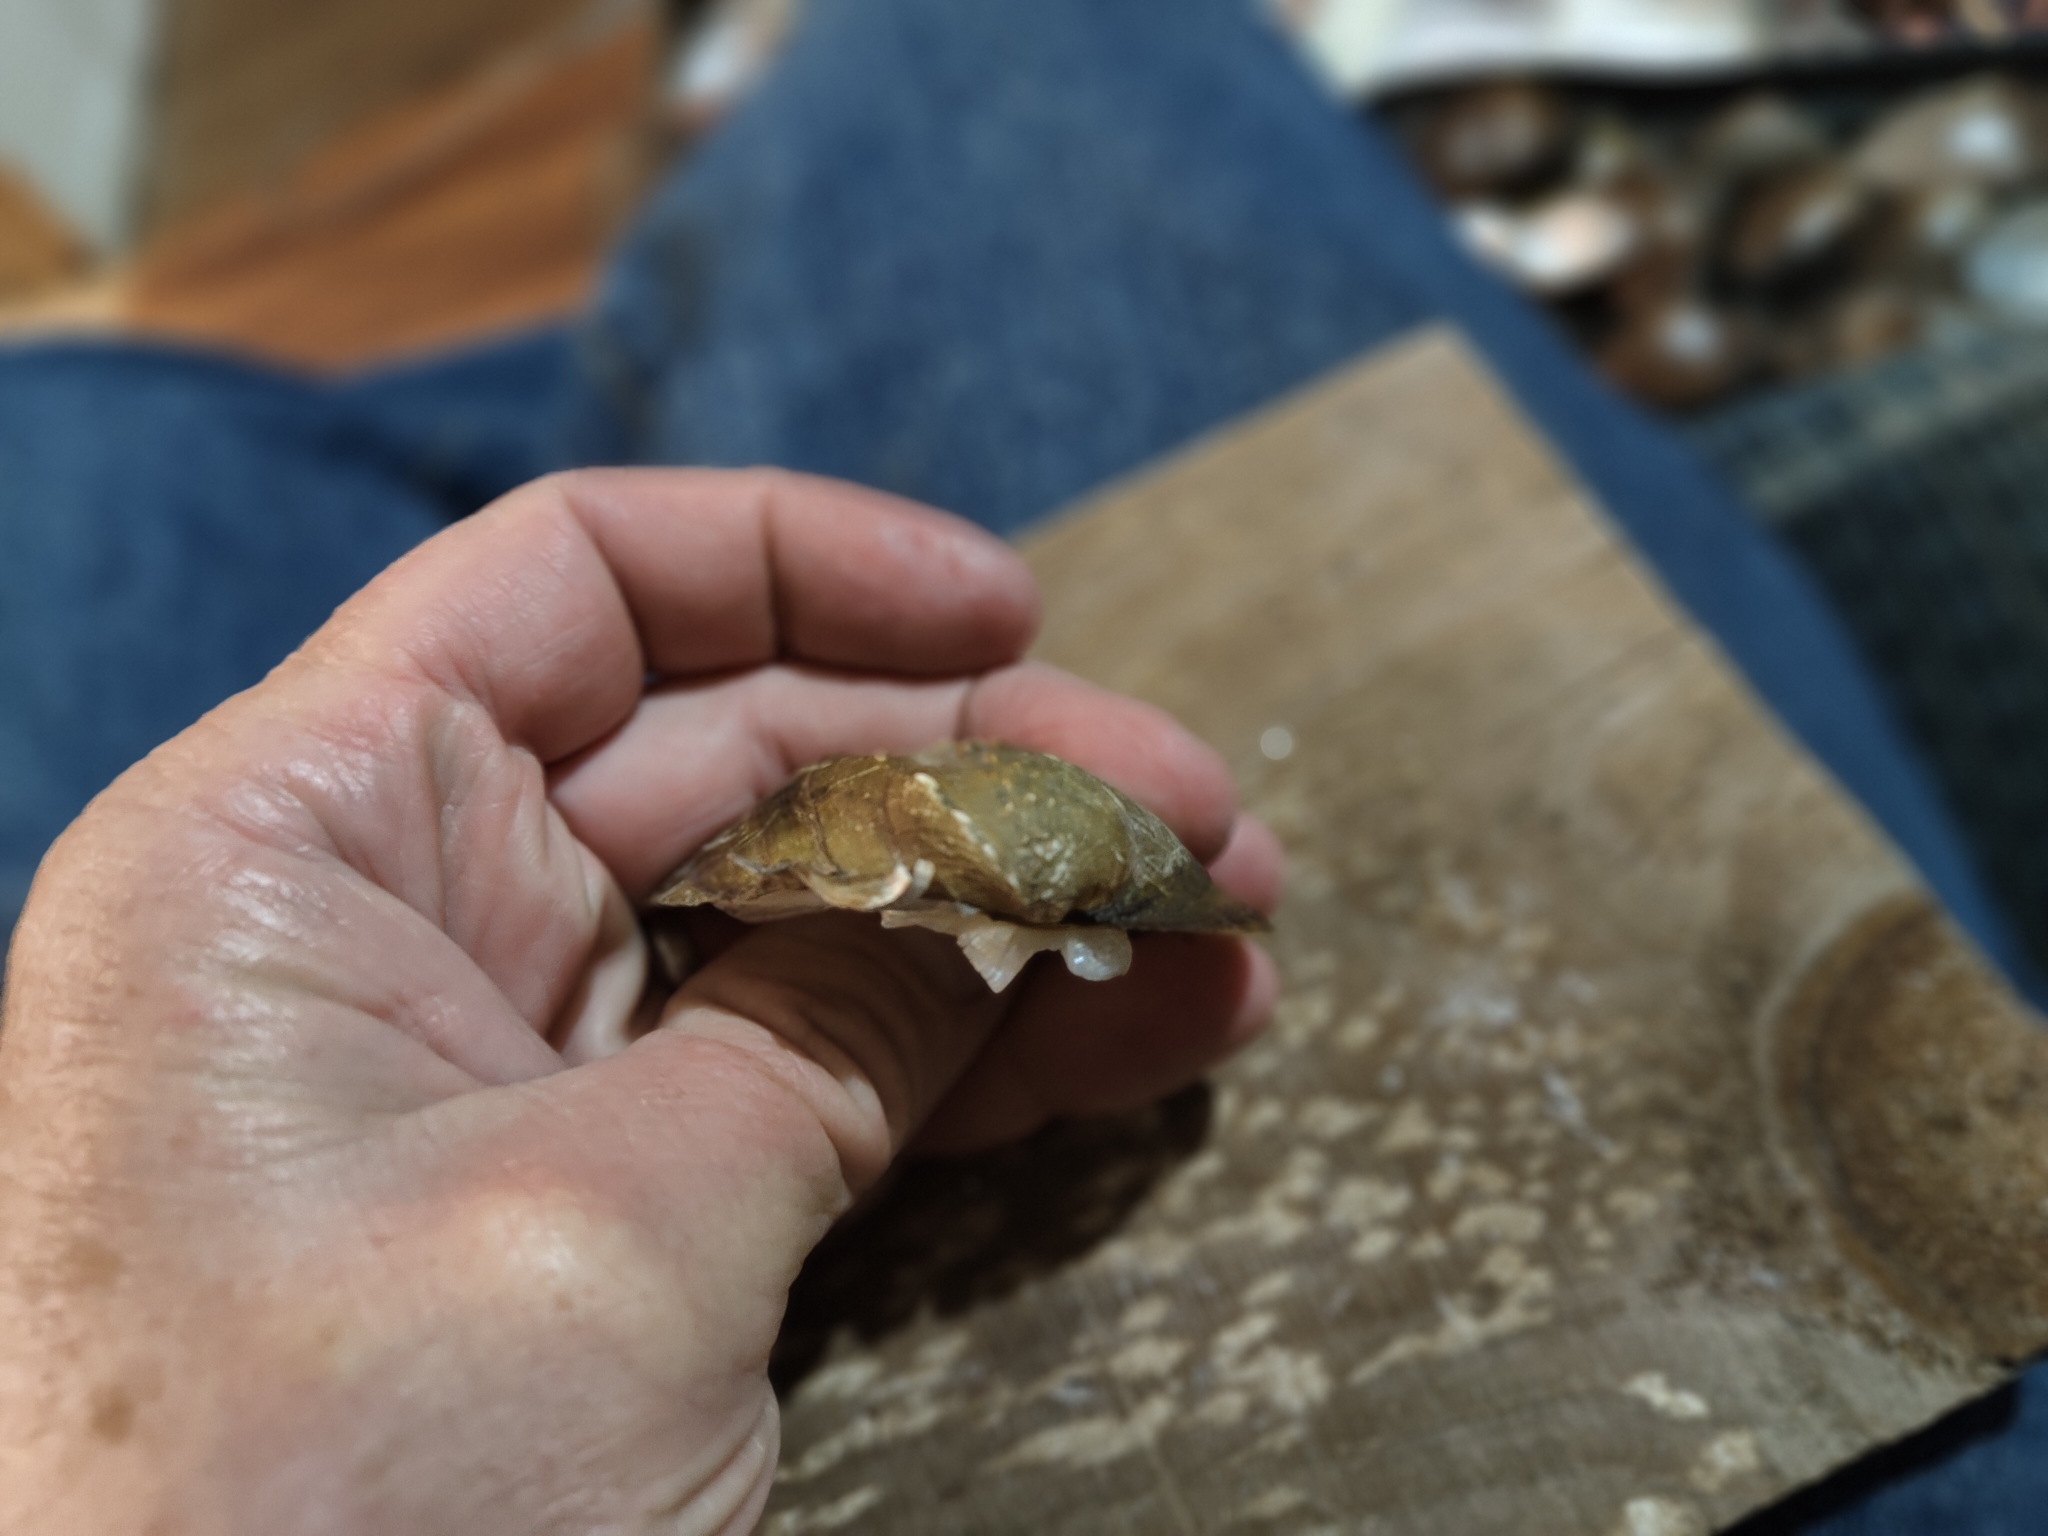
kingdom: Animalia
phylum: Mollusca
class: Bivalvia
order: Unionida
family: Unionidae
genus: Quadrula
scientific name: Quadrula quadrula
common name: Mapleleaf
